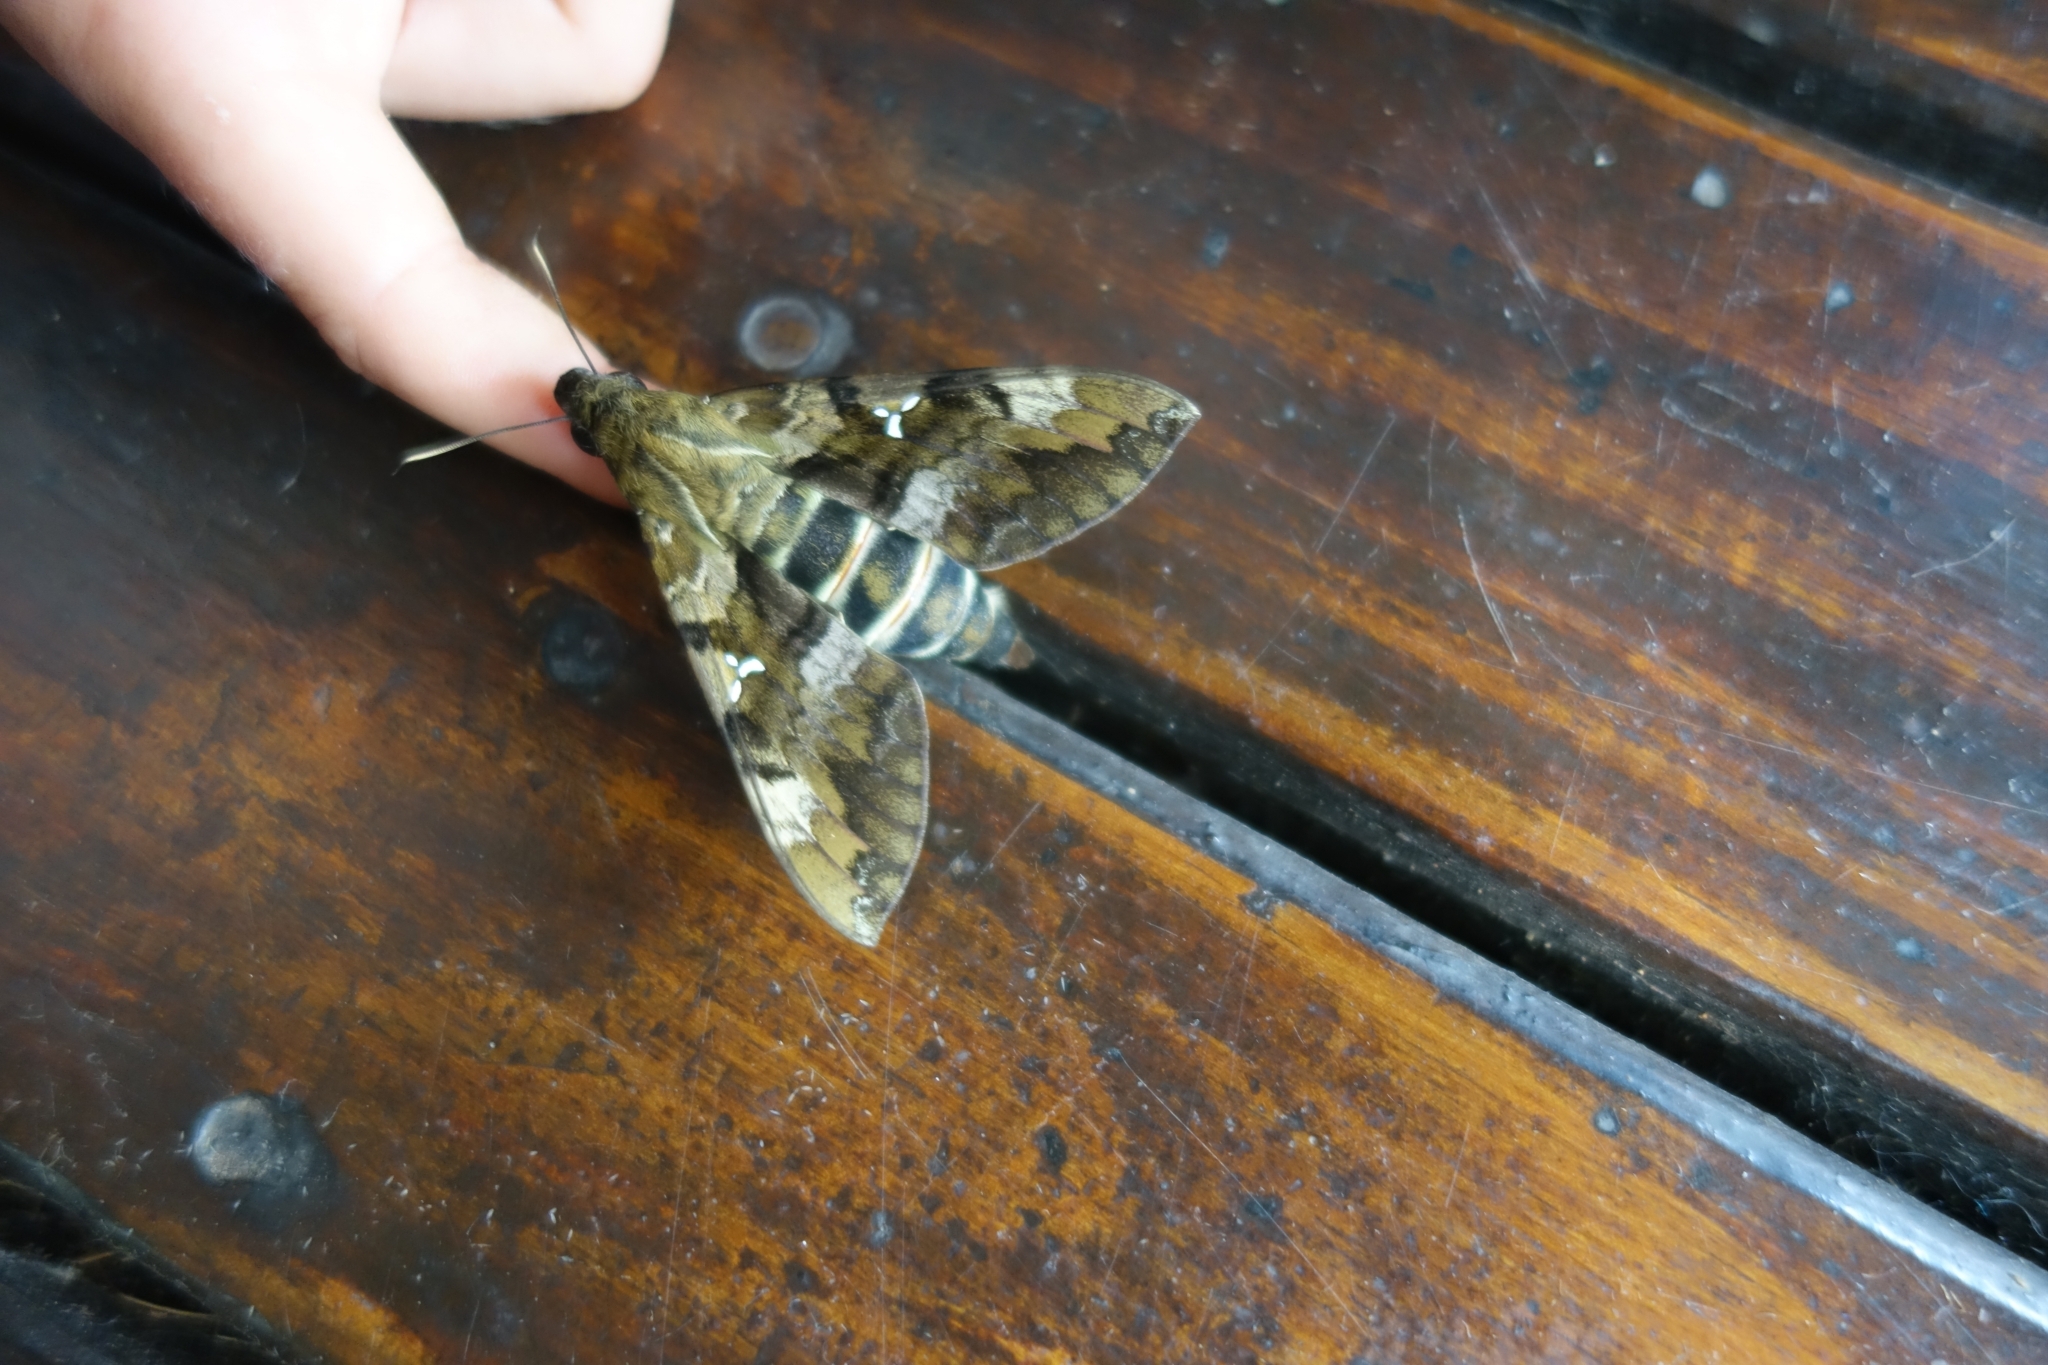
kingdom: Animalia
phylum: Arthropoda
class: Insecta
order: Lepidoptera
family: Sphingidae
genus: Nephele
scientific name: Nephele accentifera
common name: Accented hawk-moth
